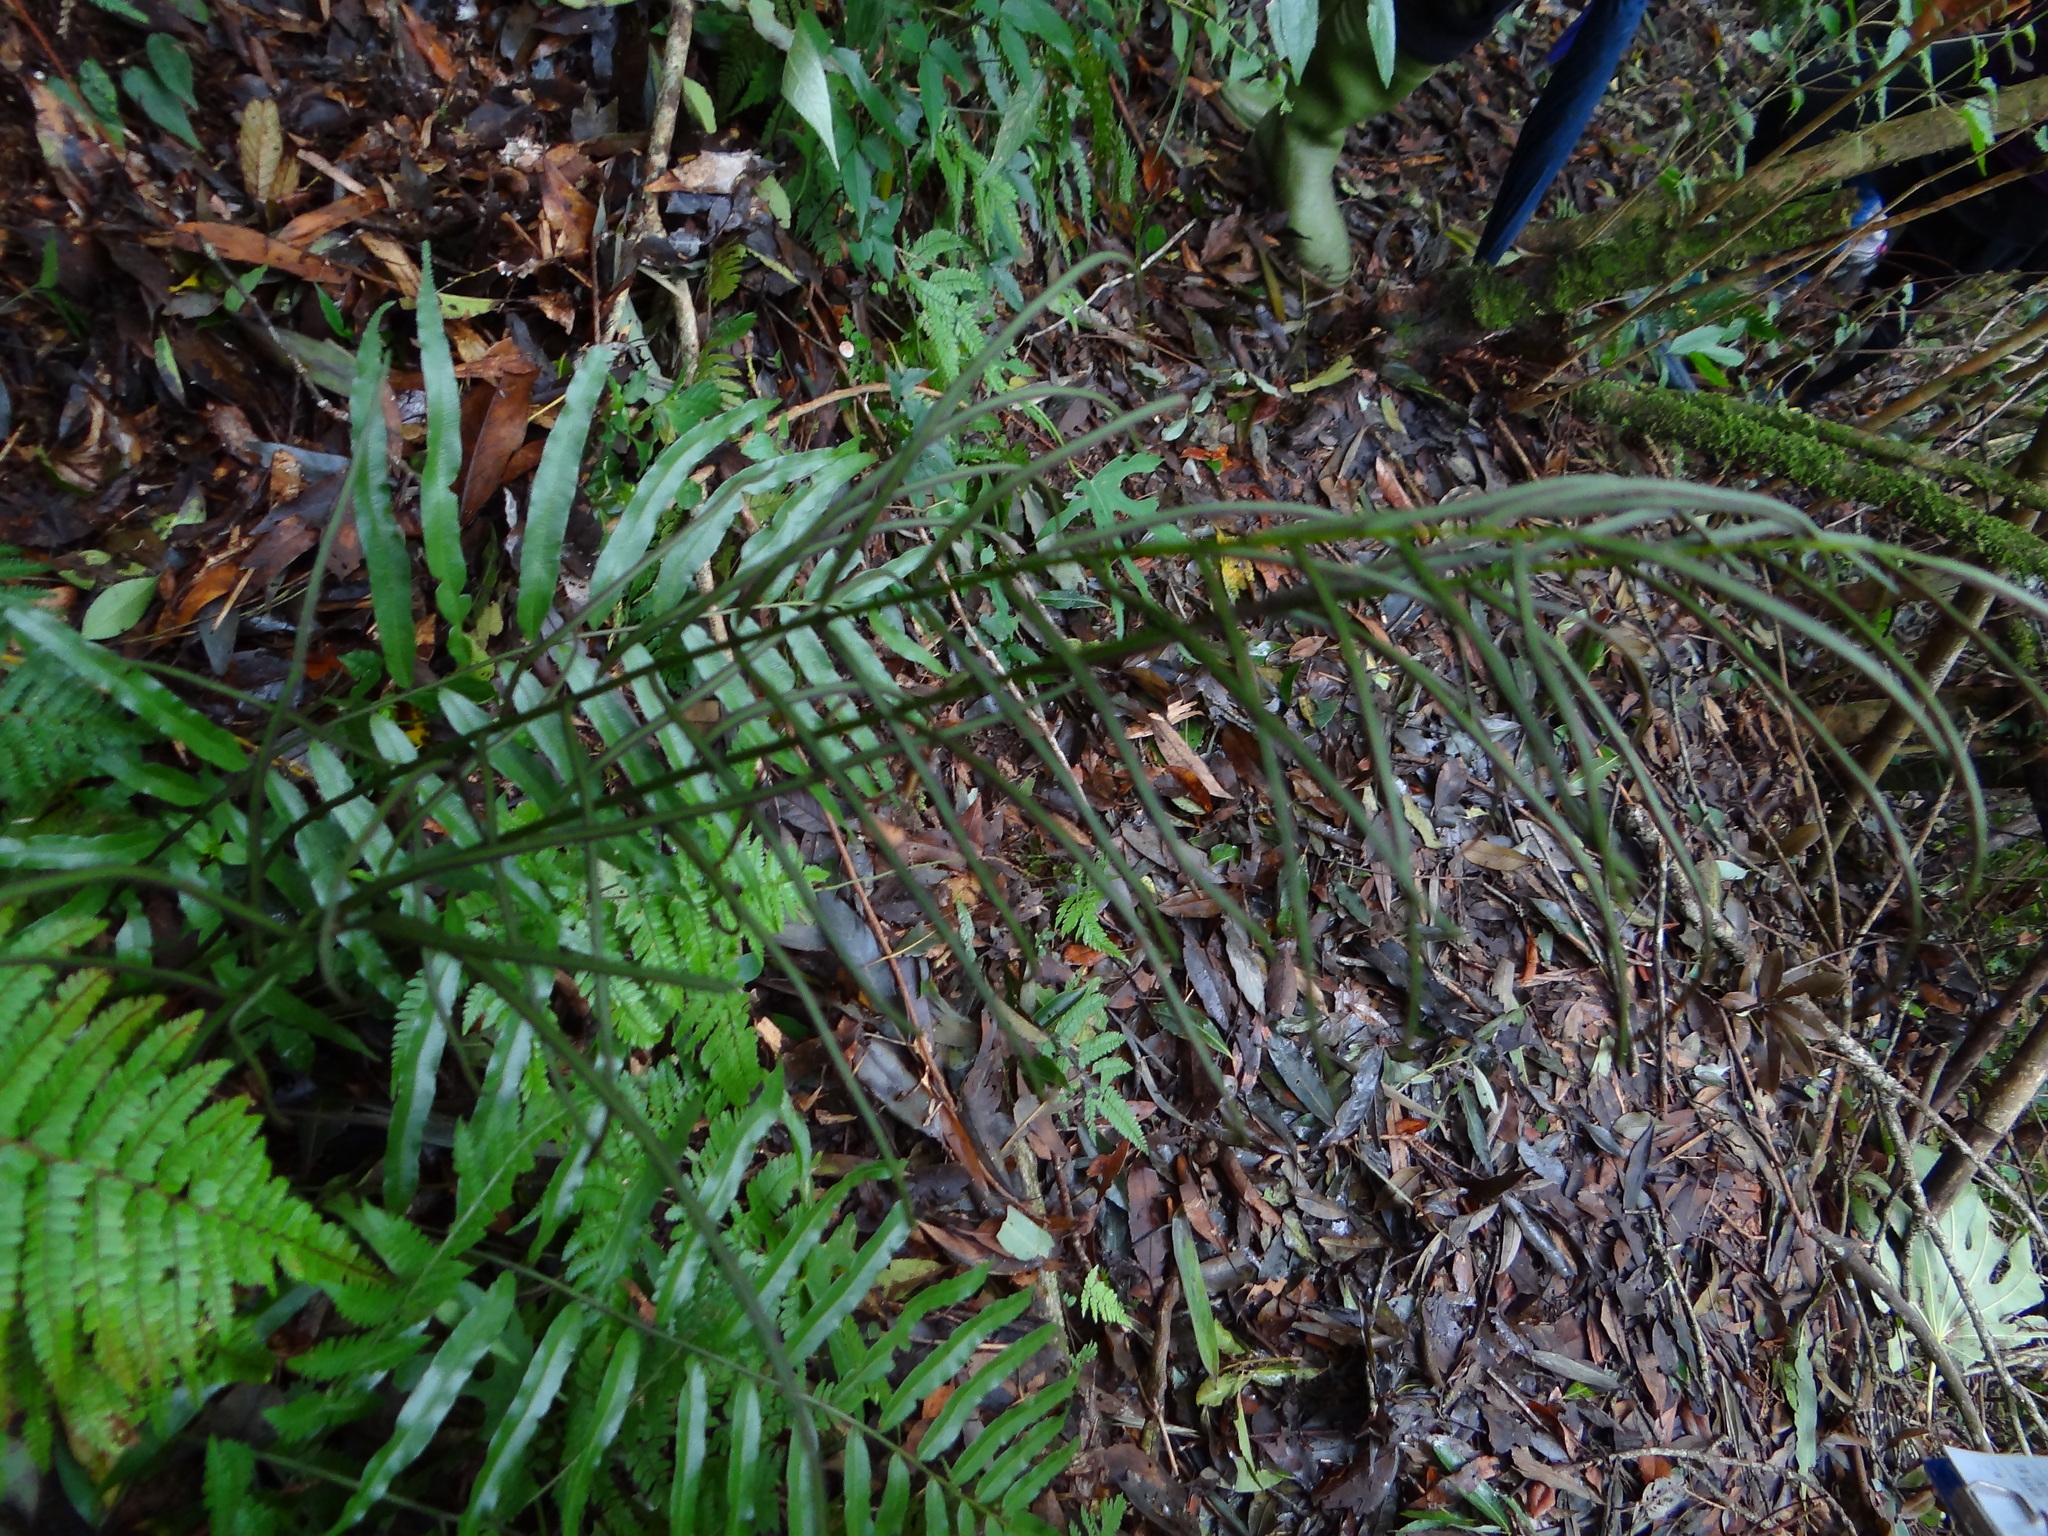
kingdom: Plantae
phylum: Tracheophyta
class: Polypodiopsida
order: Cyatheales
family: Plagiogyriaceae
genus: Plagiogyria
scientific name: Plagiogyria euphlebia
